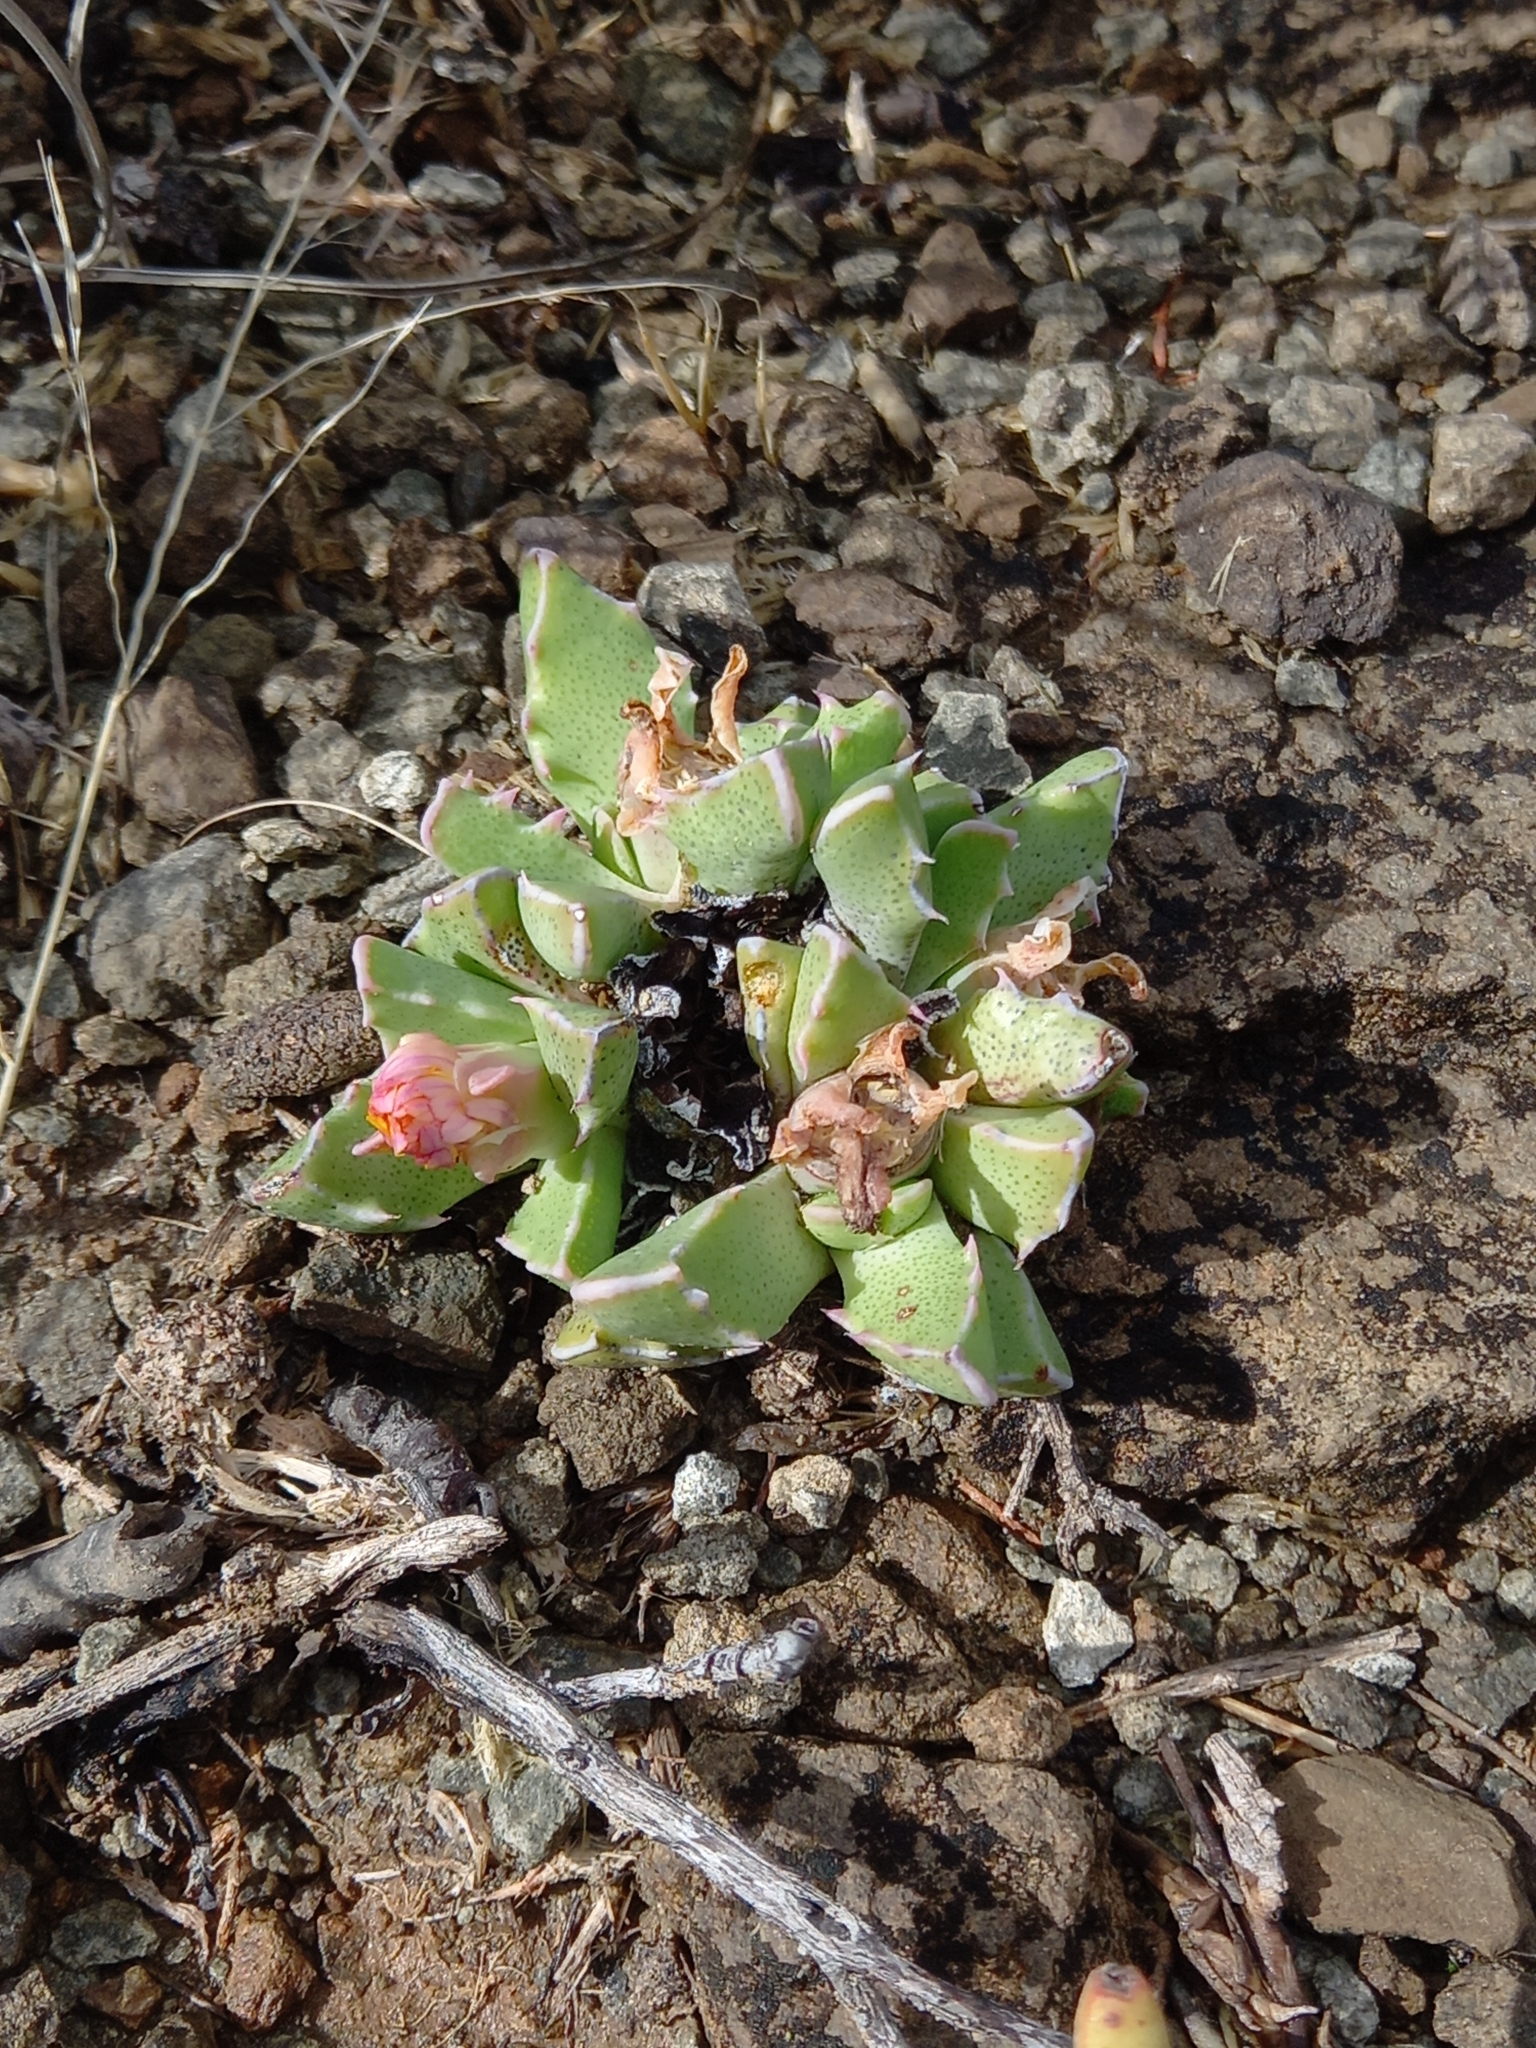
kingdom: Plantae
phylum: Tracheophyta
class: Magnoliopsida
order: Caryophyllales
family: Aizoaceae
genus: Faucaria
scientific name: Faucaria bosscheana
